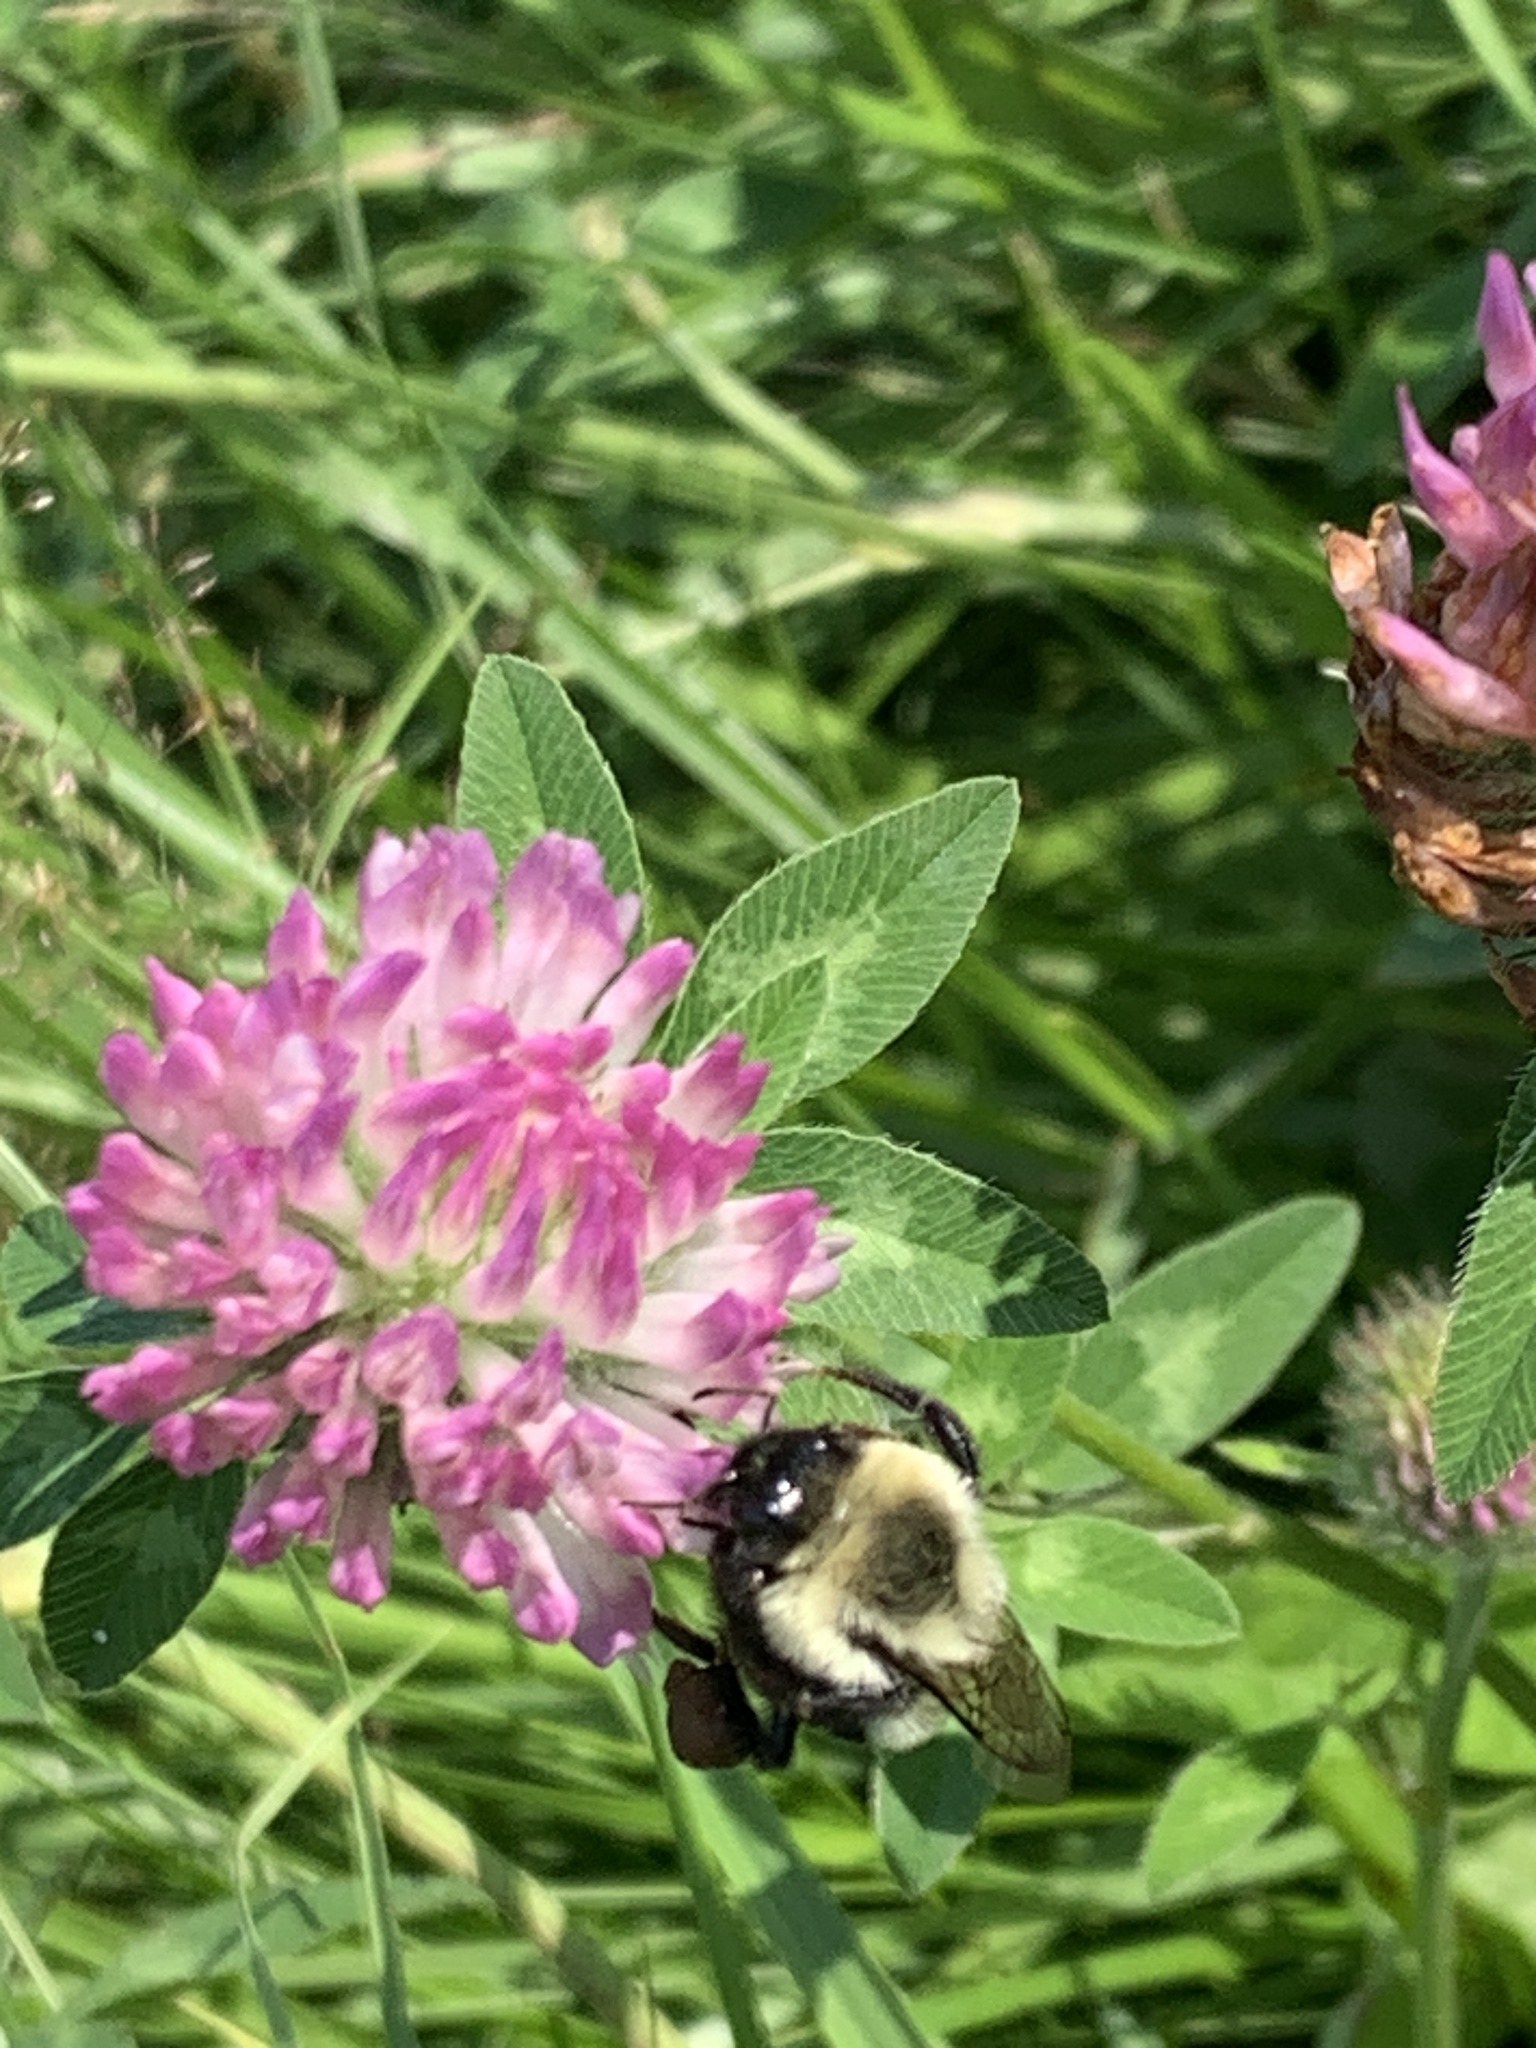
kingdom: Animalia
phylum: Arthropoda
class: Insecta
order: Hymenoptera
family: Apidae
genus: Bombus
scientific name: Bombus impatiens
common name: Common eastern bumble bee
